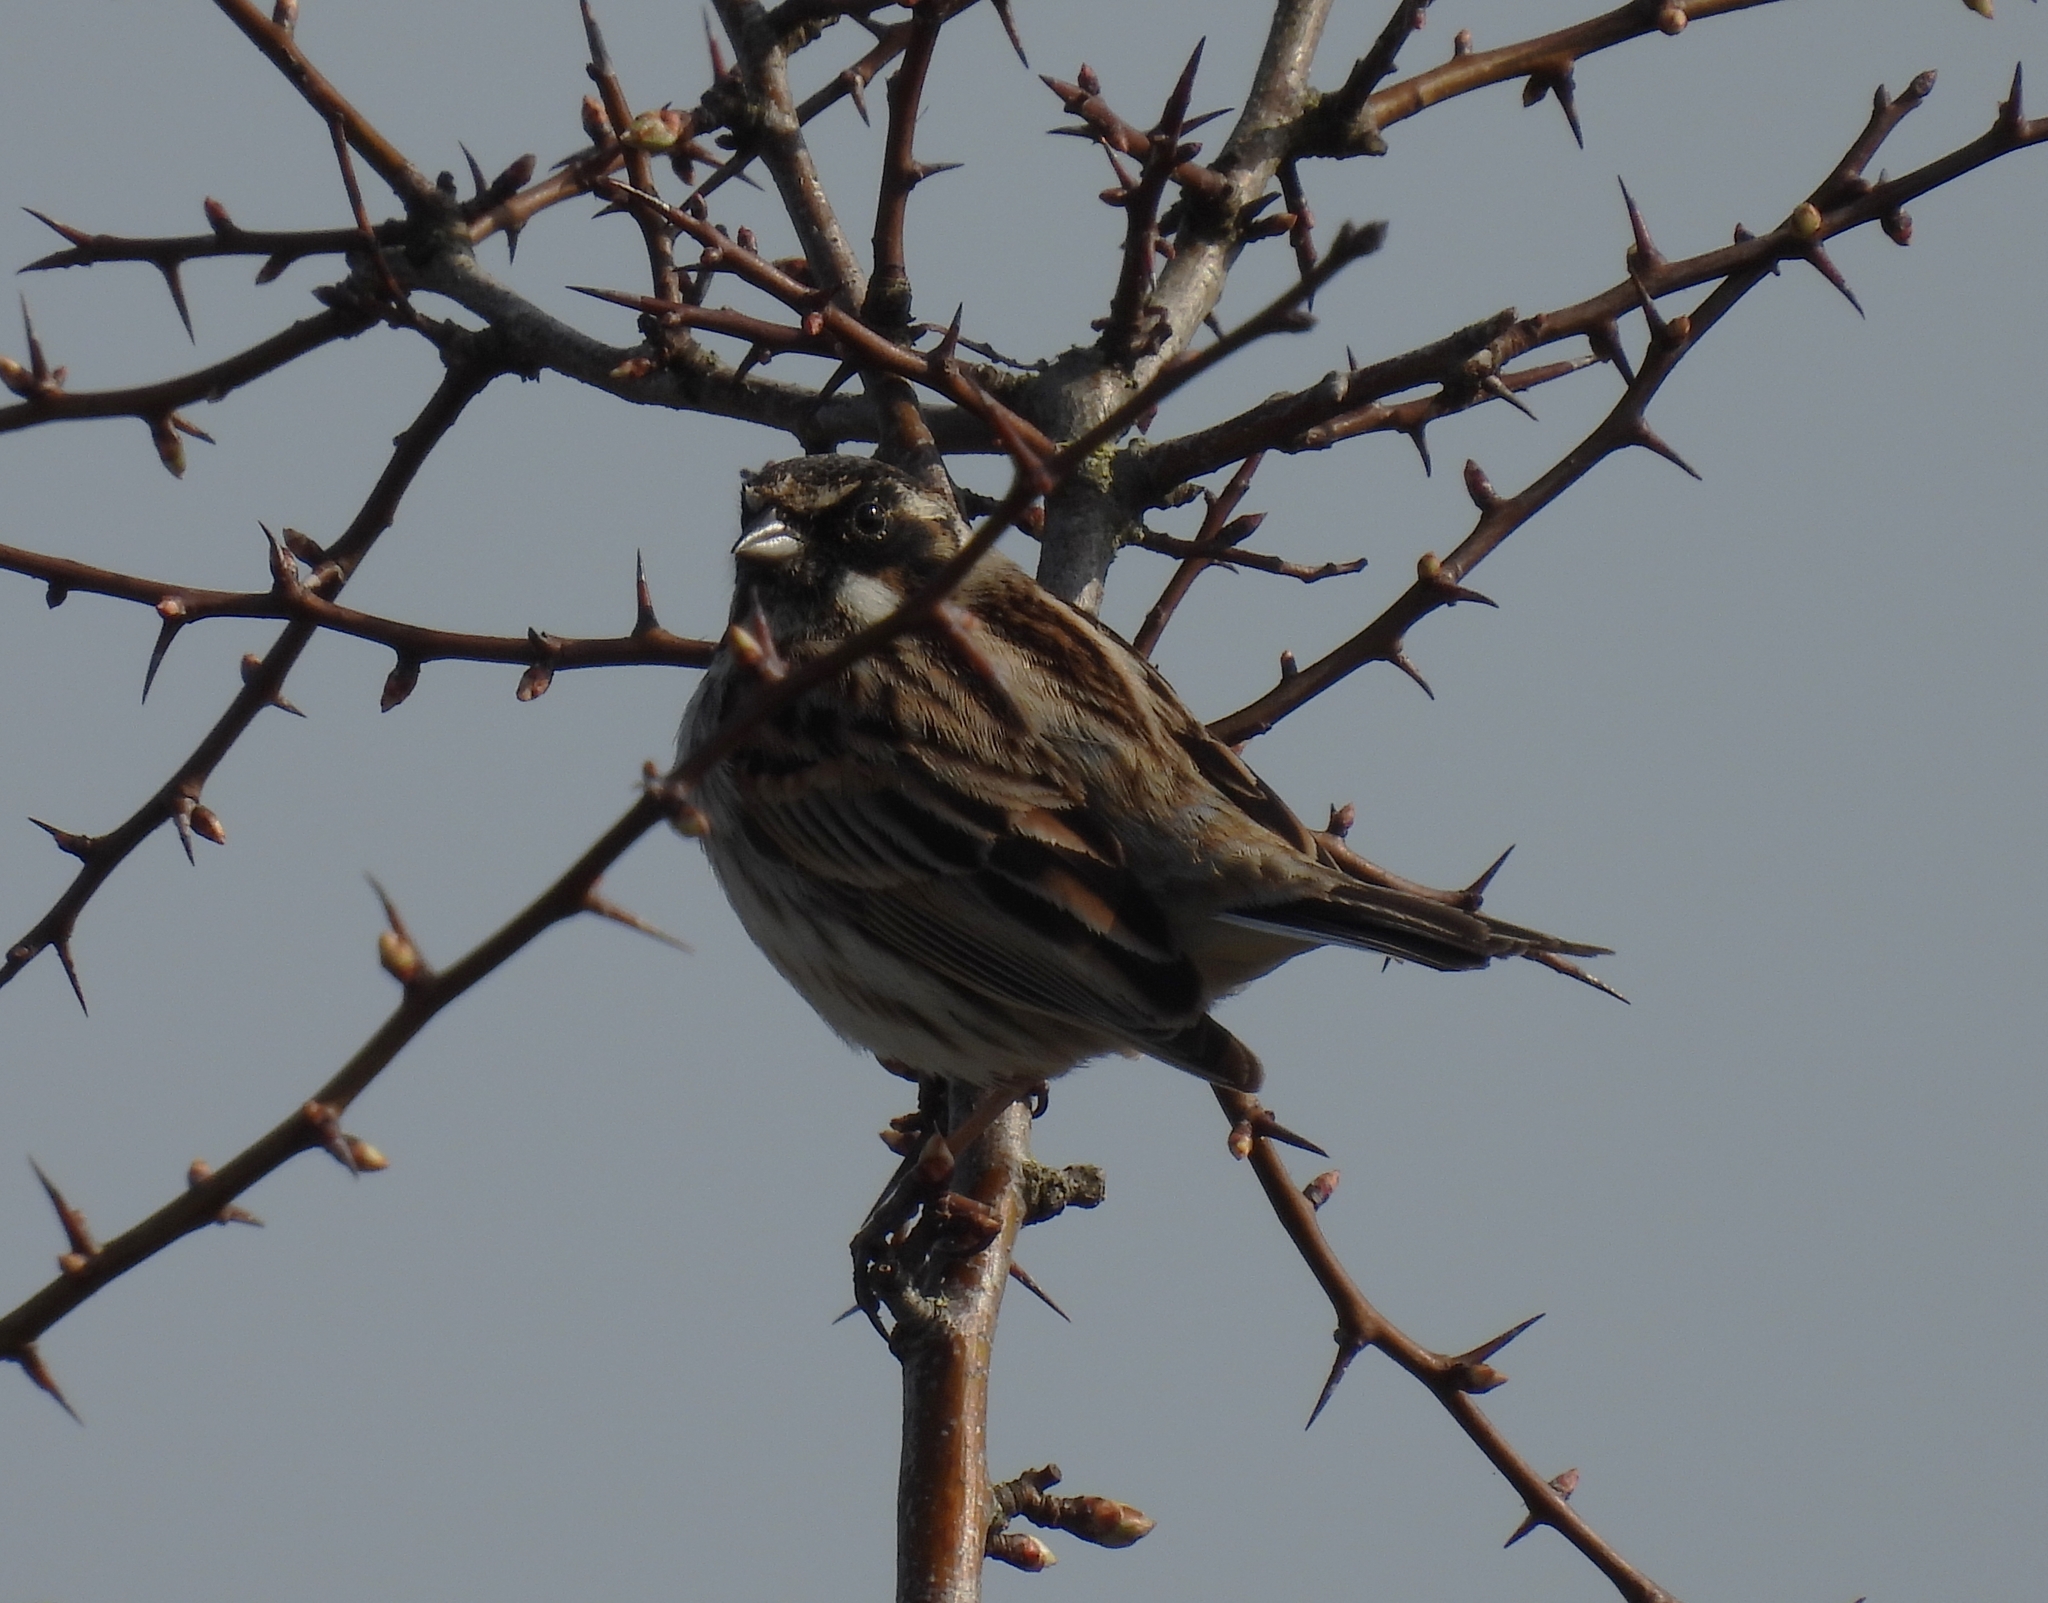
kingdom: Animalia
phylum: Chordata
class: Aves
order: Passeriformes
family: Emberizidae
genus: Emberiza
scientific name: Emberiza schoeniclus
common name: Reed bunting
